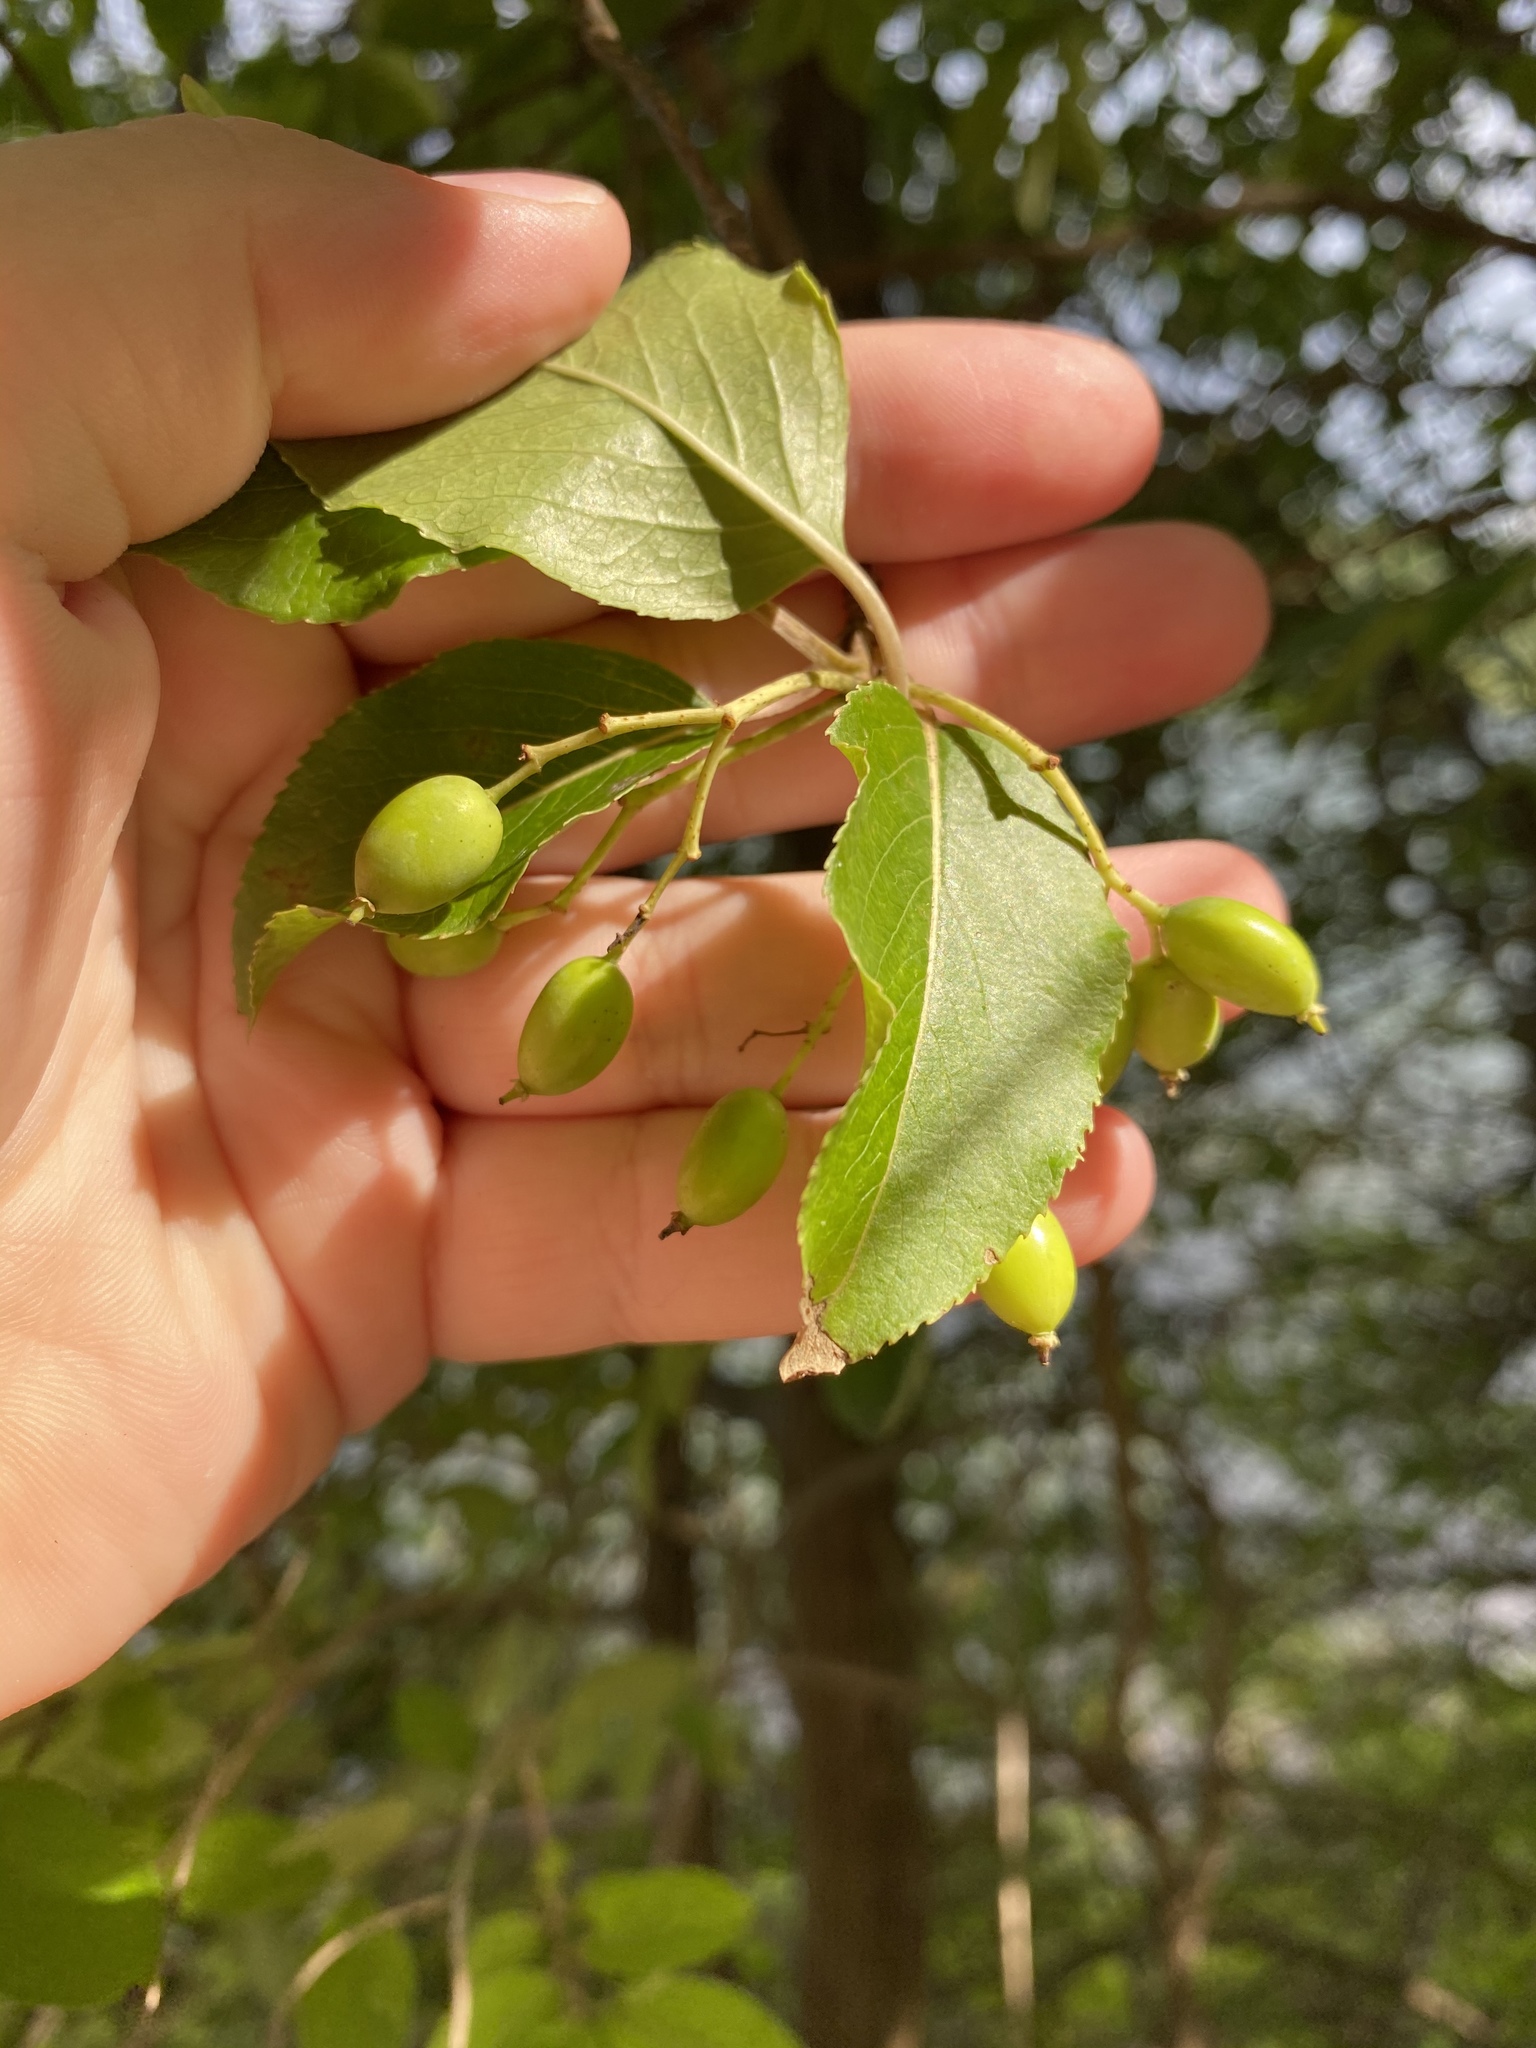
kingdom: Plantae
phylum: Tracheophyta
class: Magnoliopsida
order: Dipsacales
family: Viburnaceae
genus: Viburnum
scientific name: Viburnum prunifolium
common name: Black haw
